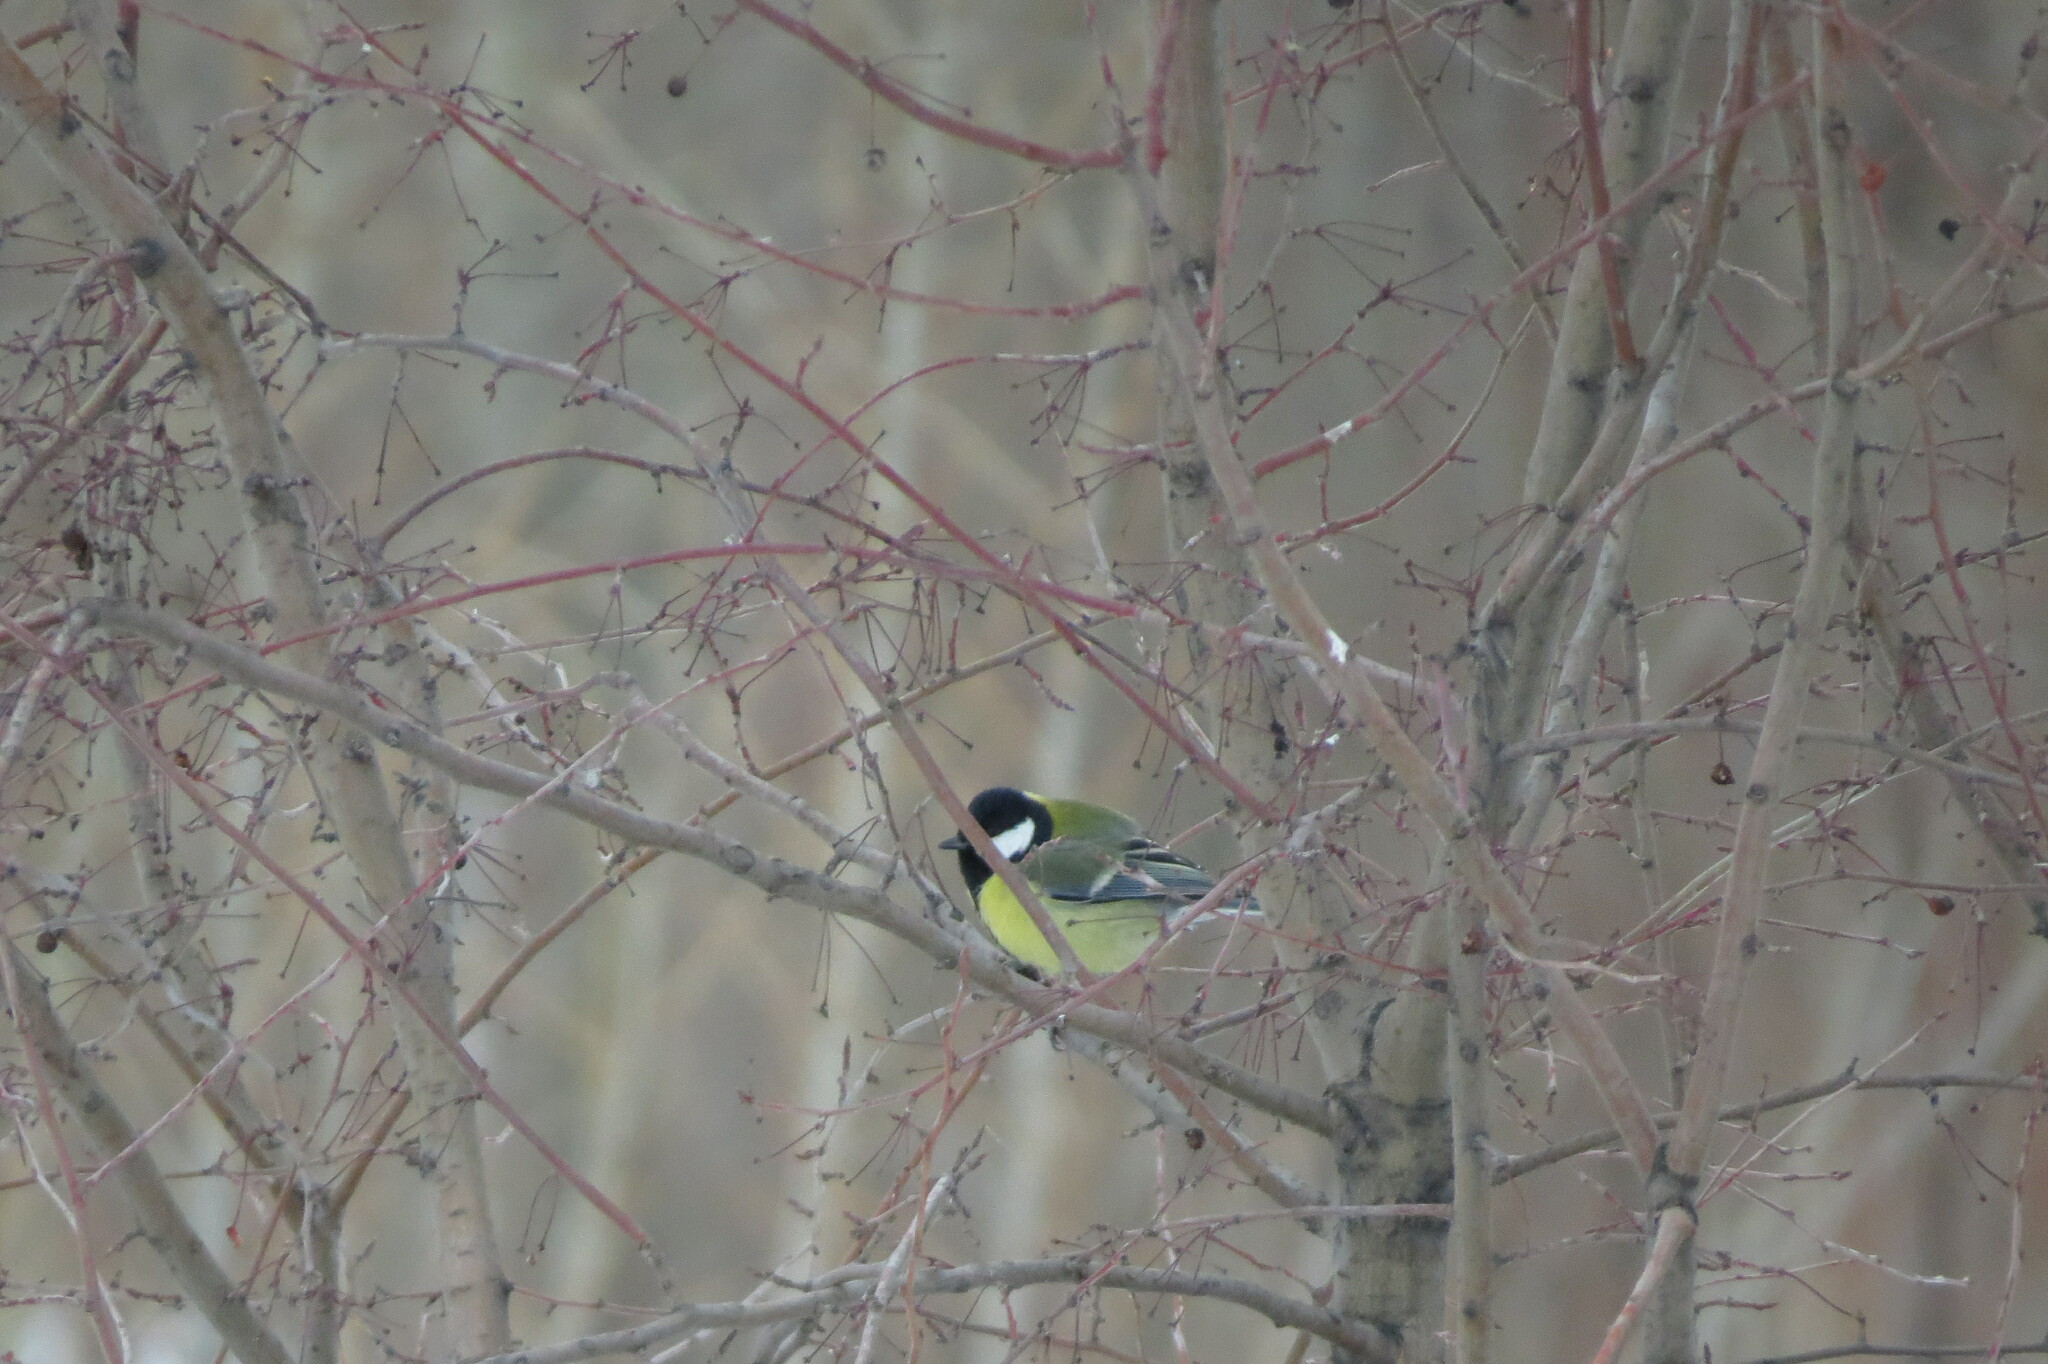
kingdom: Animalia
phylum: Chordata
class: Aves
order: Passeriformes
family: Paridae
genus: Parus
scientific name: Parus major
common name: Great tit
